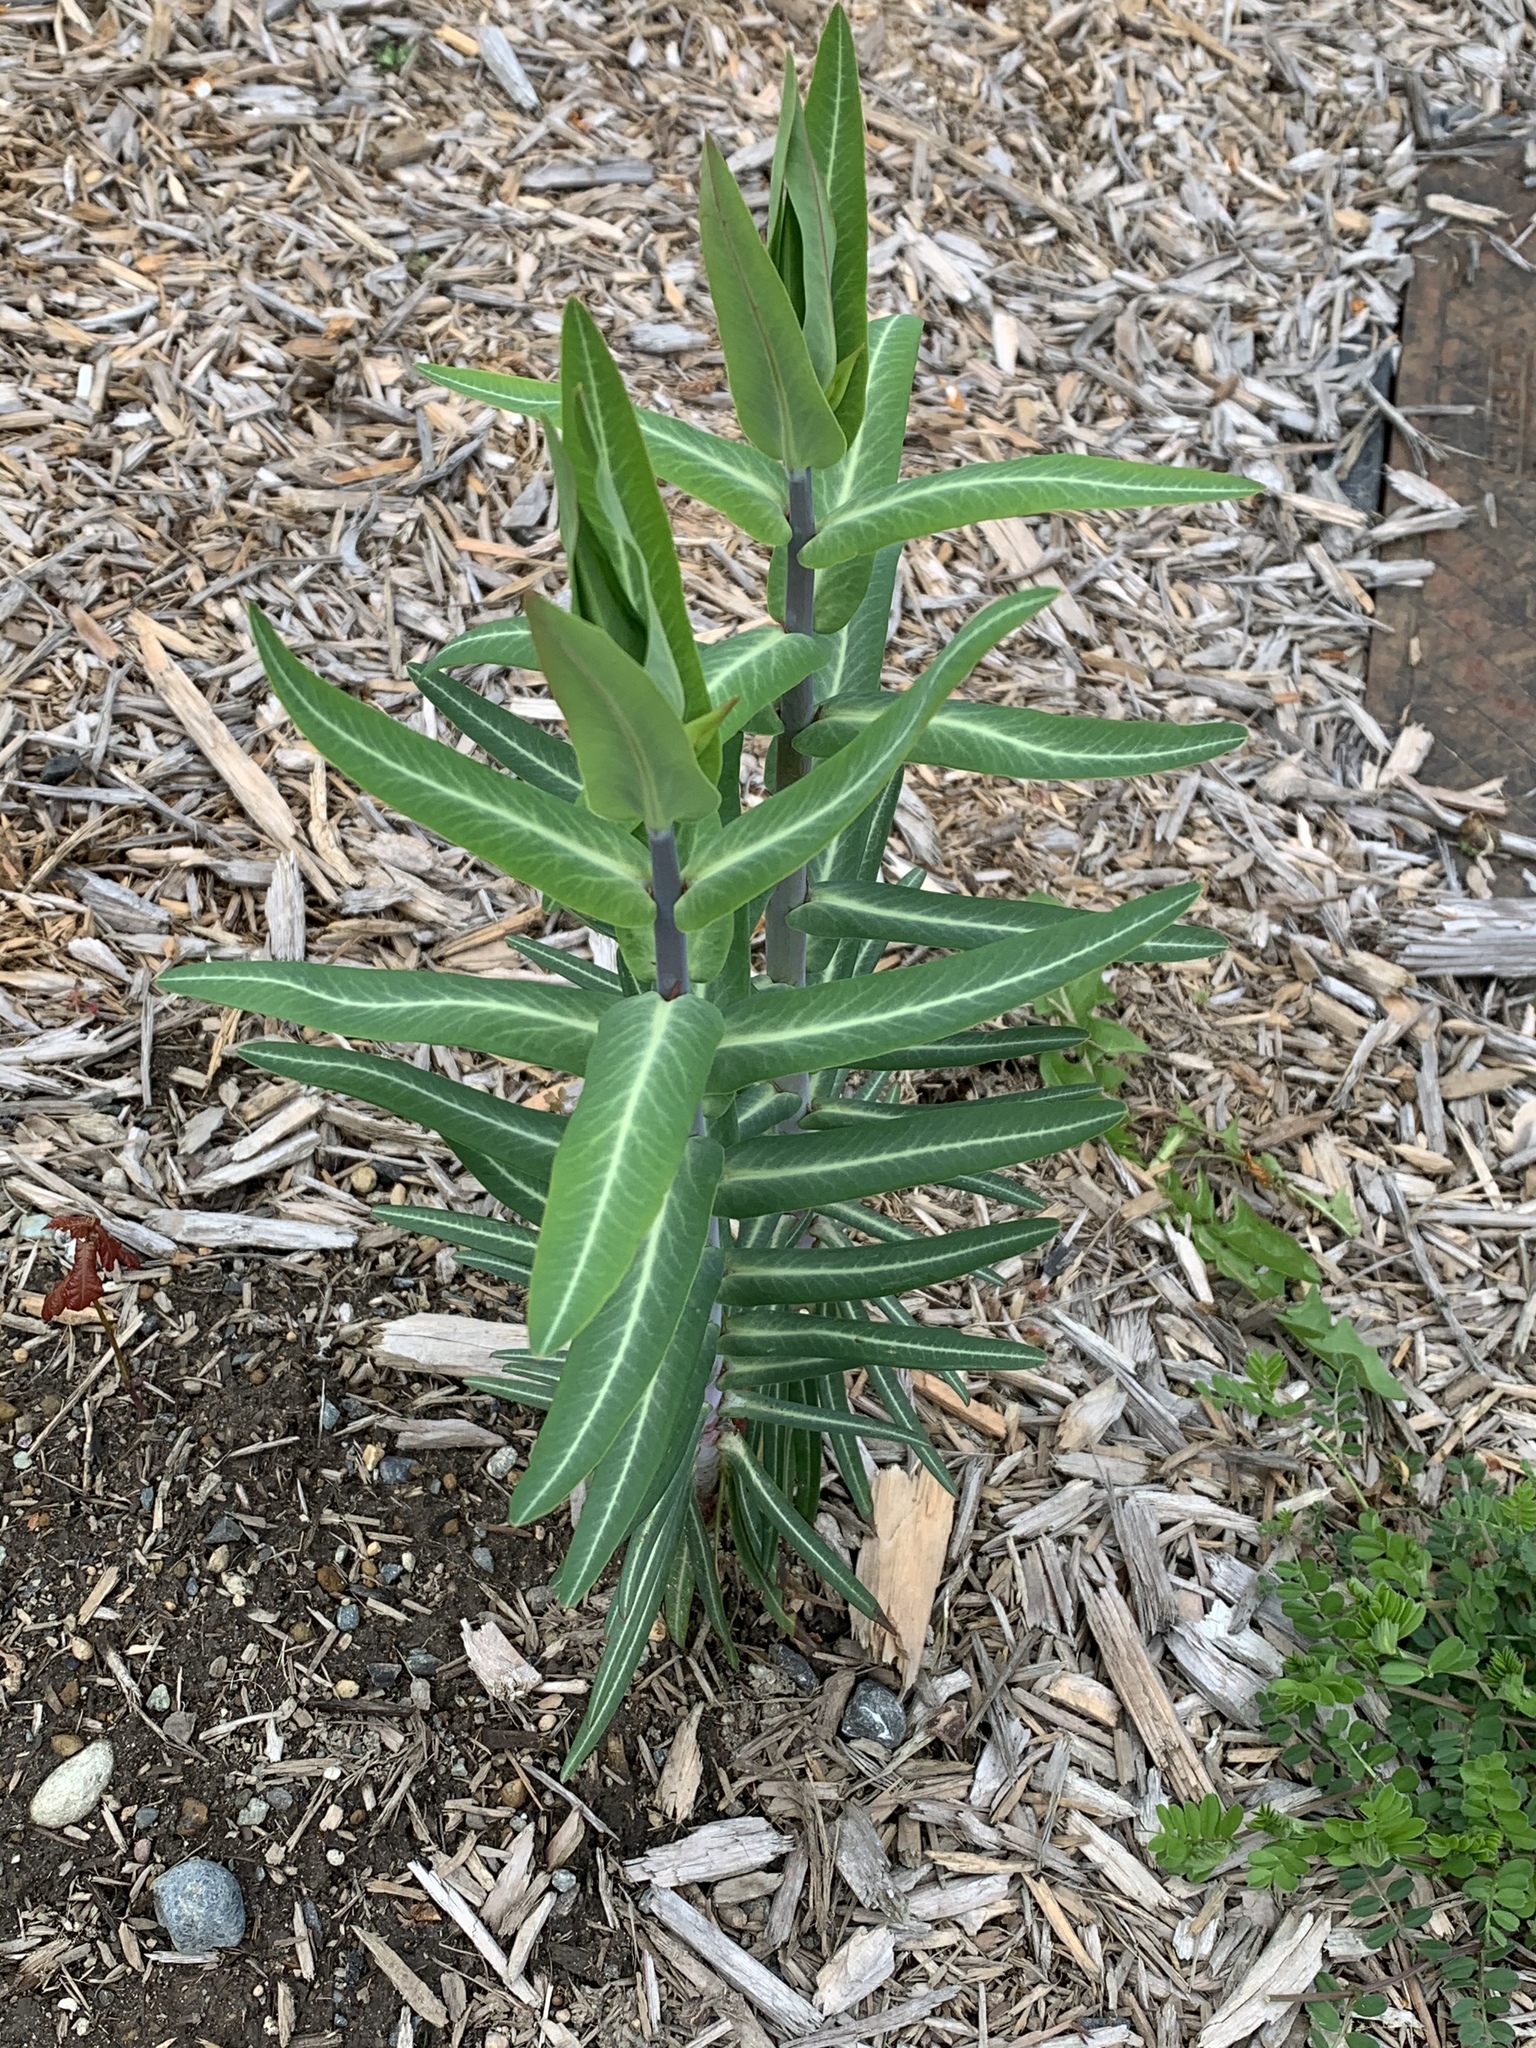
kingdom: Plantae
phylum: Tracheophyta
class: Magnoliopsida
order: Malpighiales
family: Euphorbiaceae
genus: Euphorbia
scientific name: Euphorbia lathyris
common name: Caper spurge
